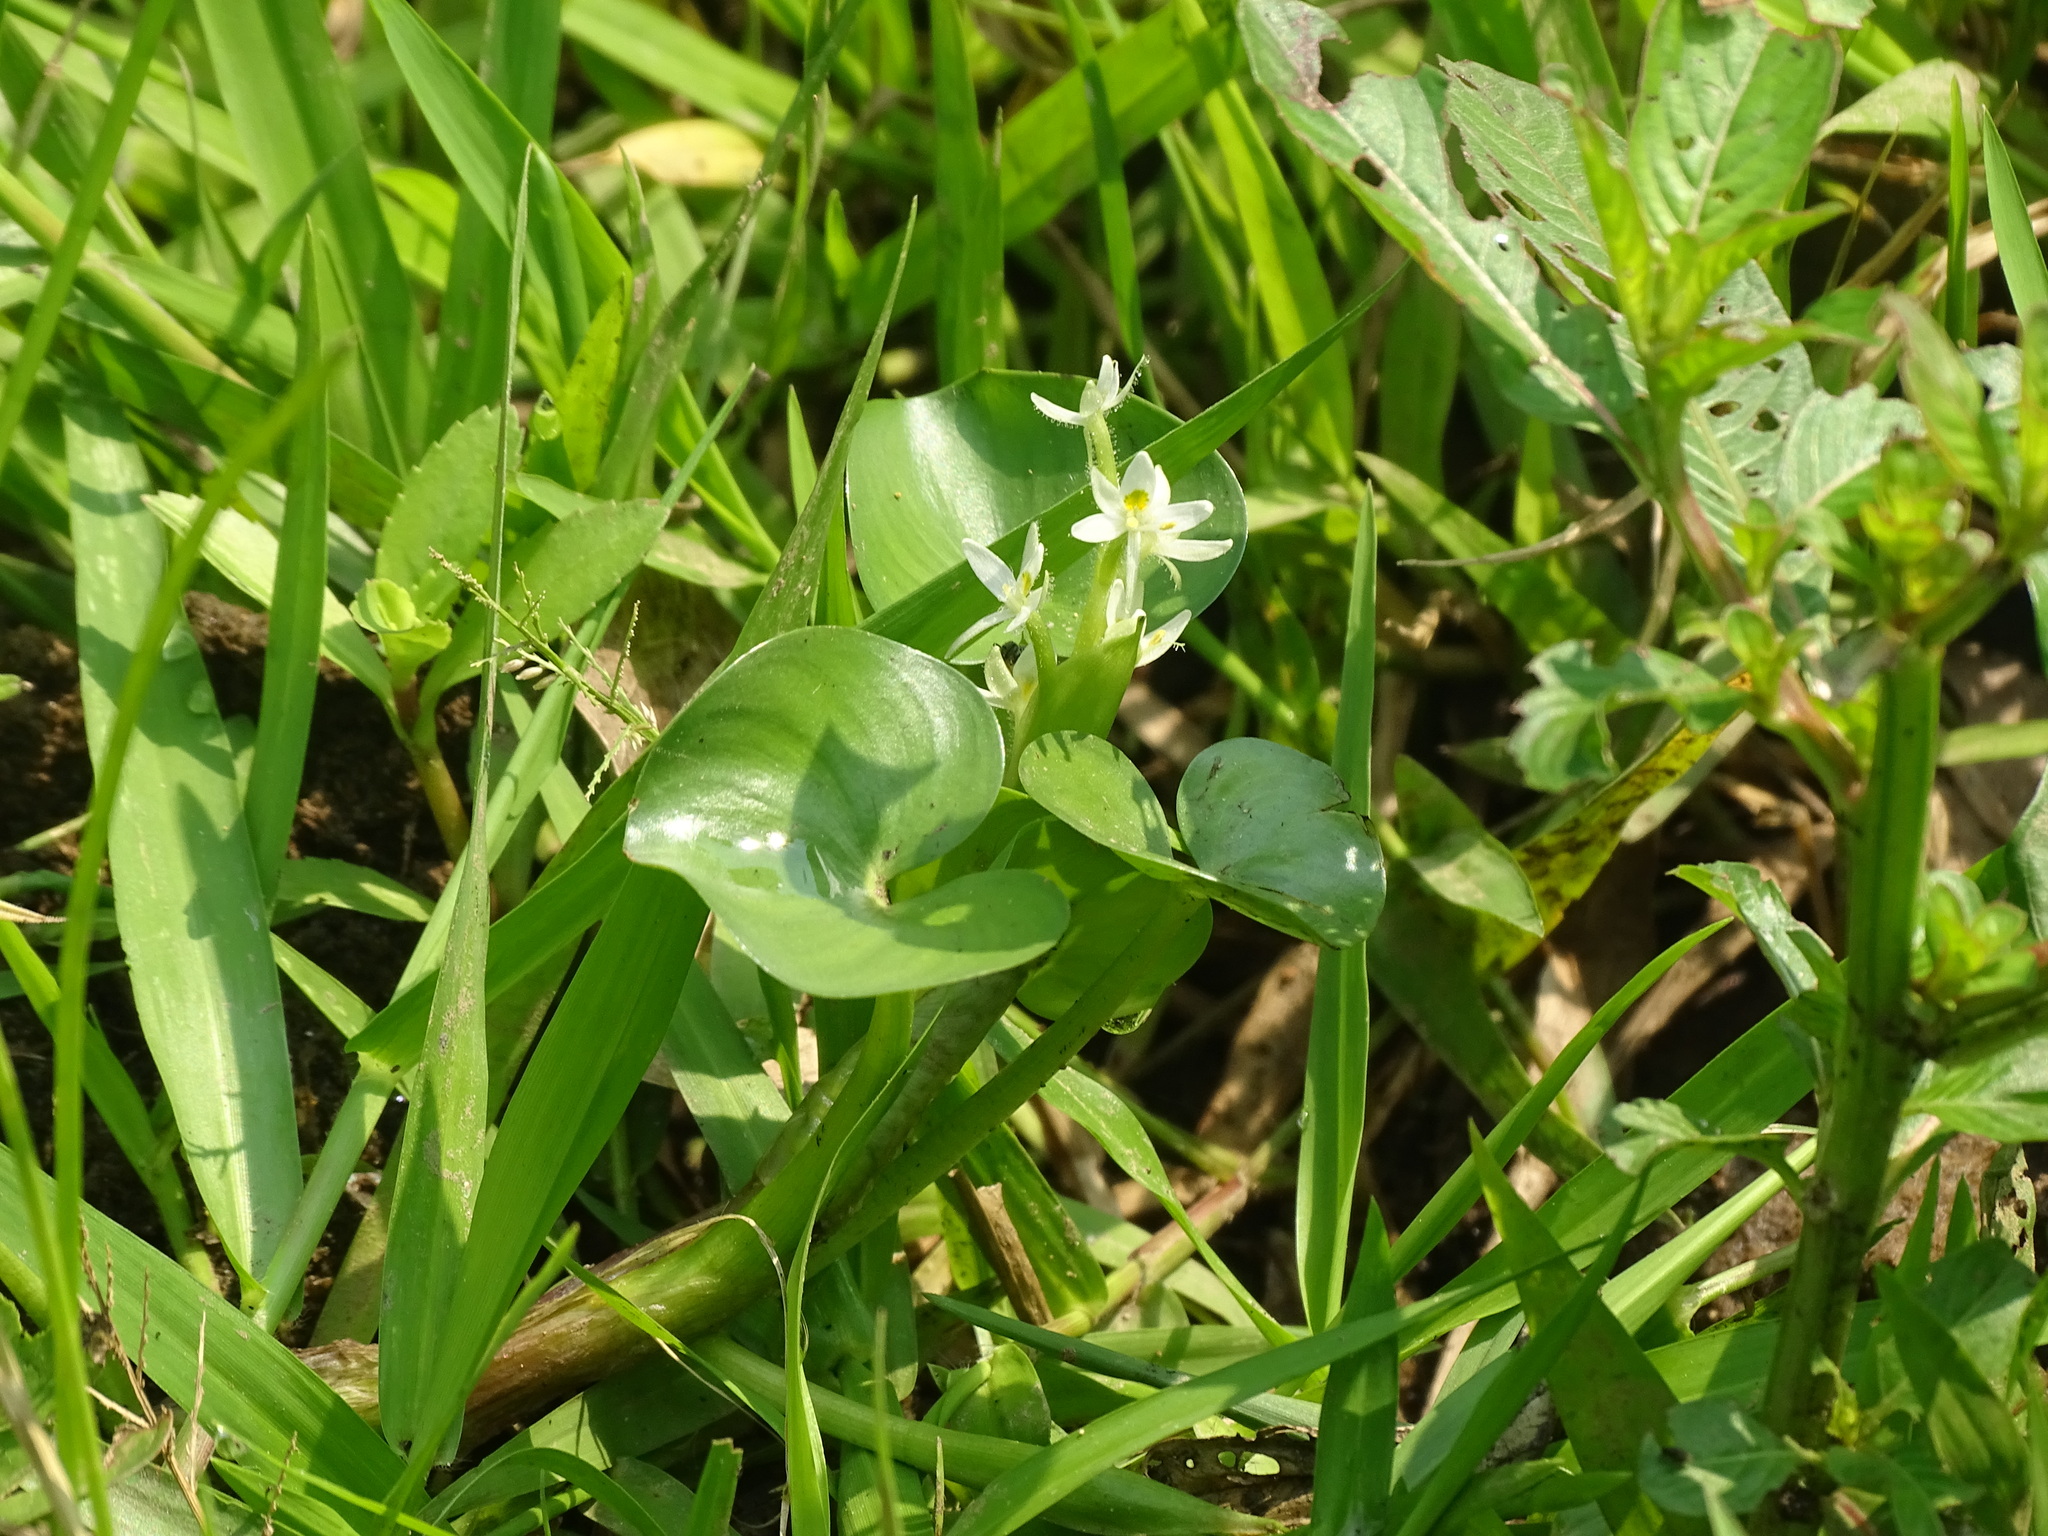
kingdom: Plantae
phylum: Tracheophyta
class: Liliopsida
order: Commelinales
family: Pontederiaceae
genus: Heteranthera
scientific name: Heteranthera reniformis
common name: Kidneyleaf mudplantain
